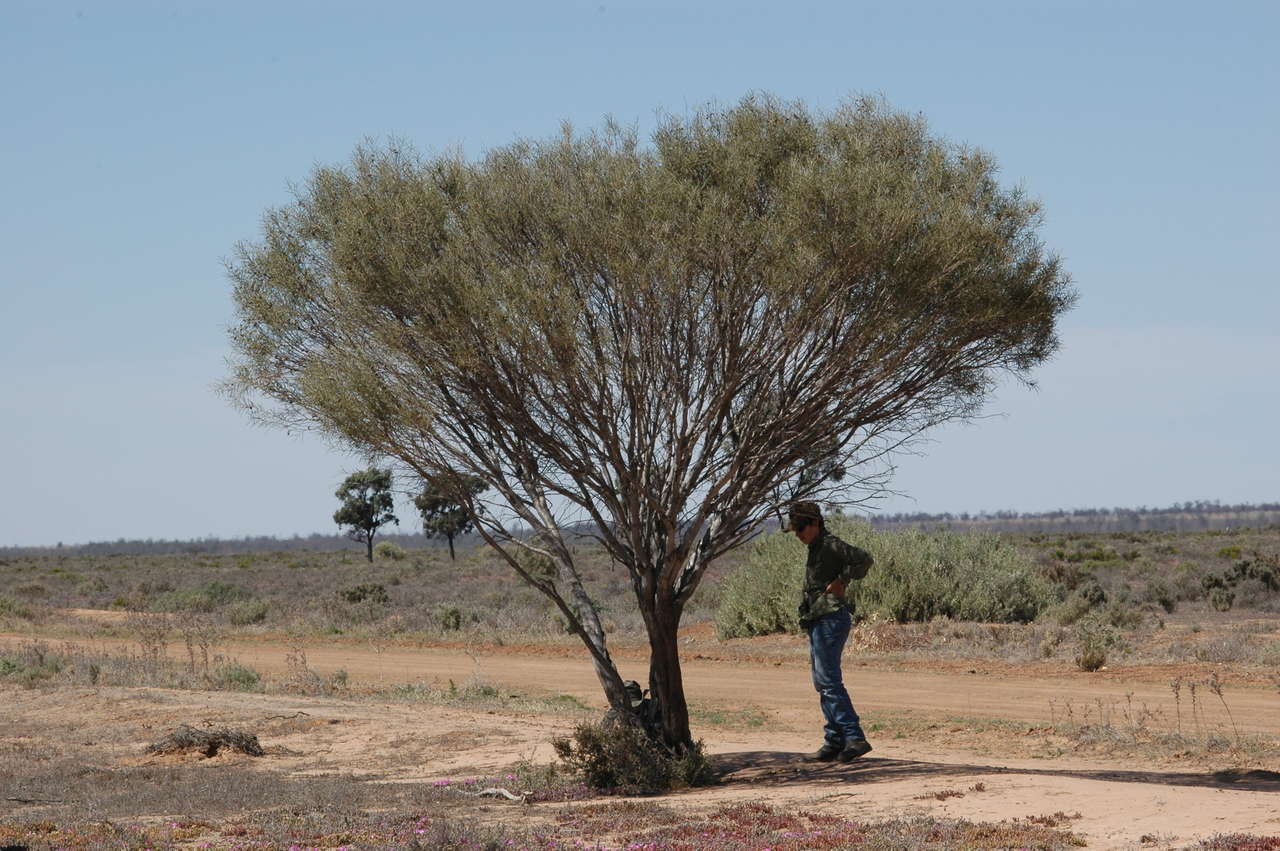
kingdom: Plantae
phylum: Tracheophyta
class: Magnoliopsida
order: Proteales
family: Proteaceae
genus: Hakea
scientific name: Hakea leucoptera
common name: Pinbush
